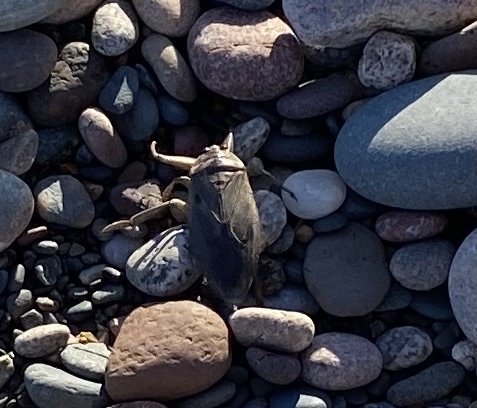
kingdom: Animalia
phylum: Arthropoda
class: Insecta
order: Hemiptera
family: Belostomatidae
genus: Lethocerus
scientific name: Lethocerus
